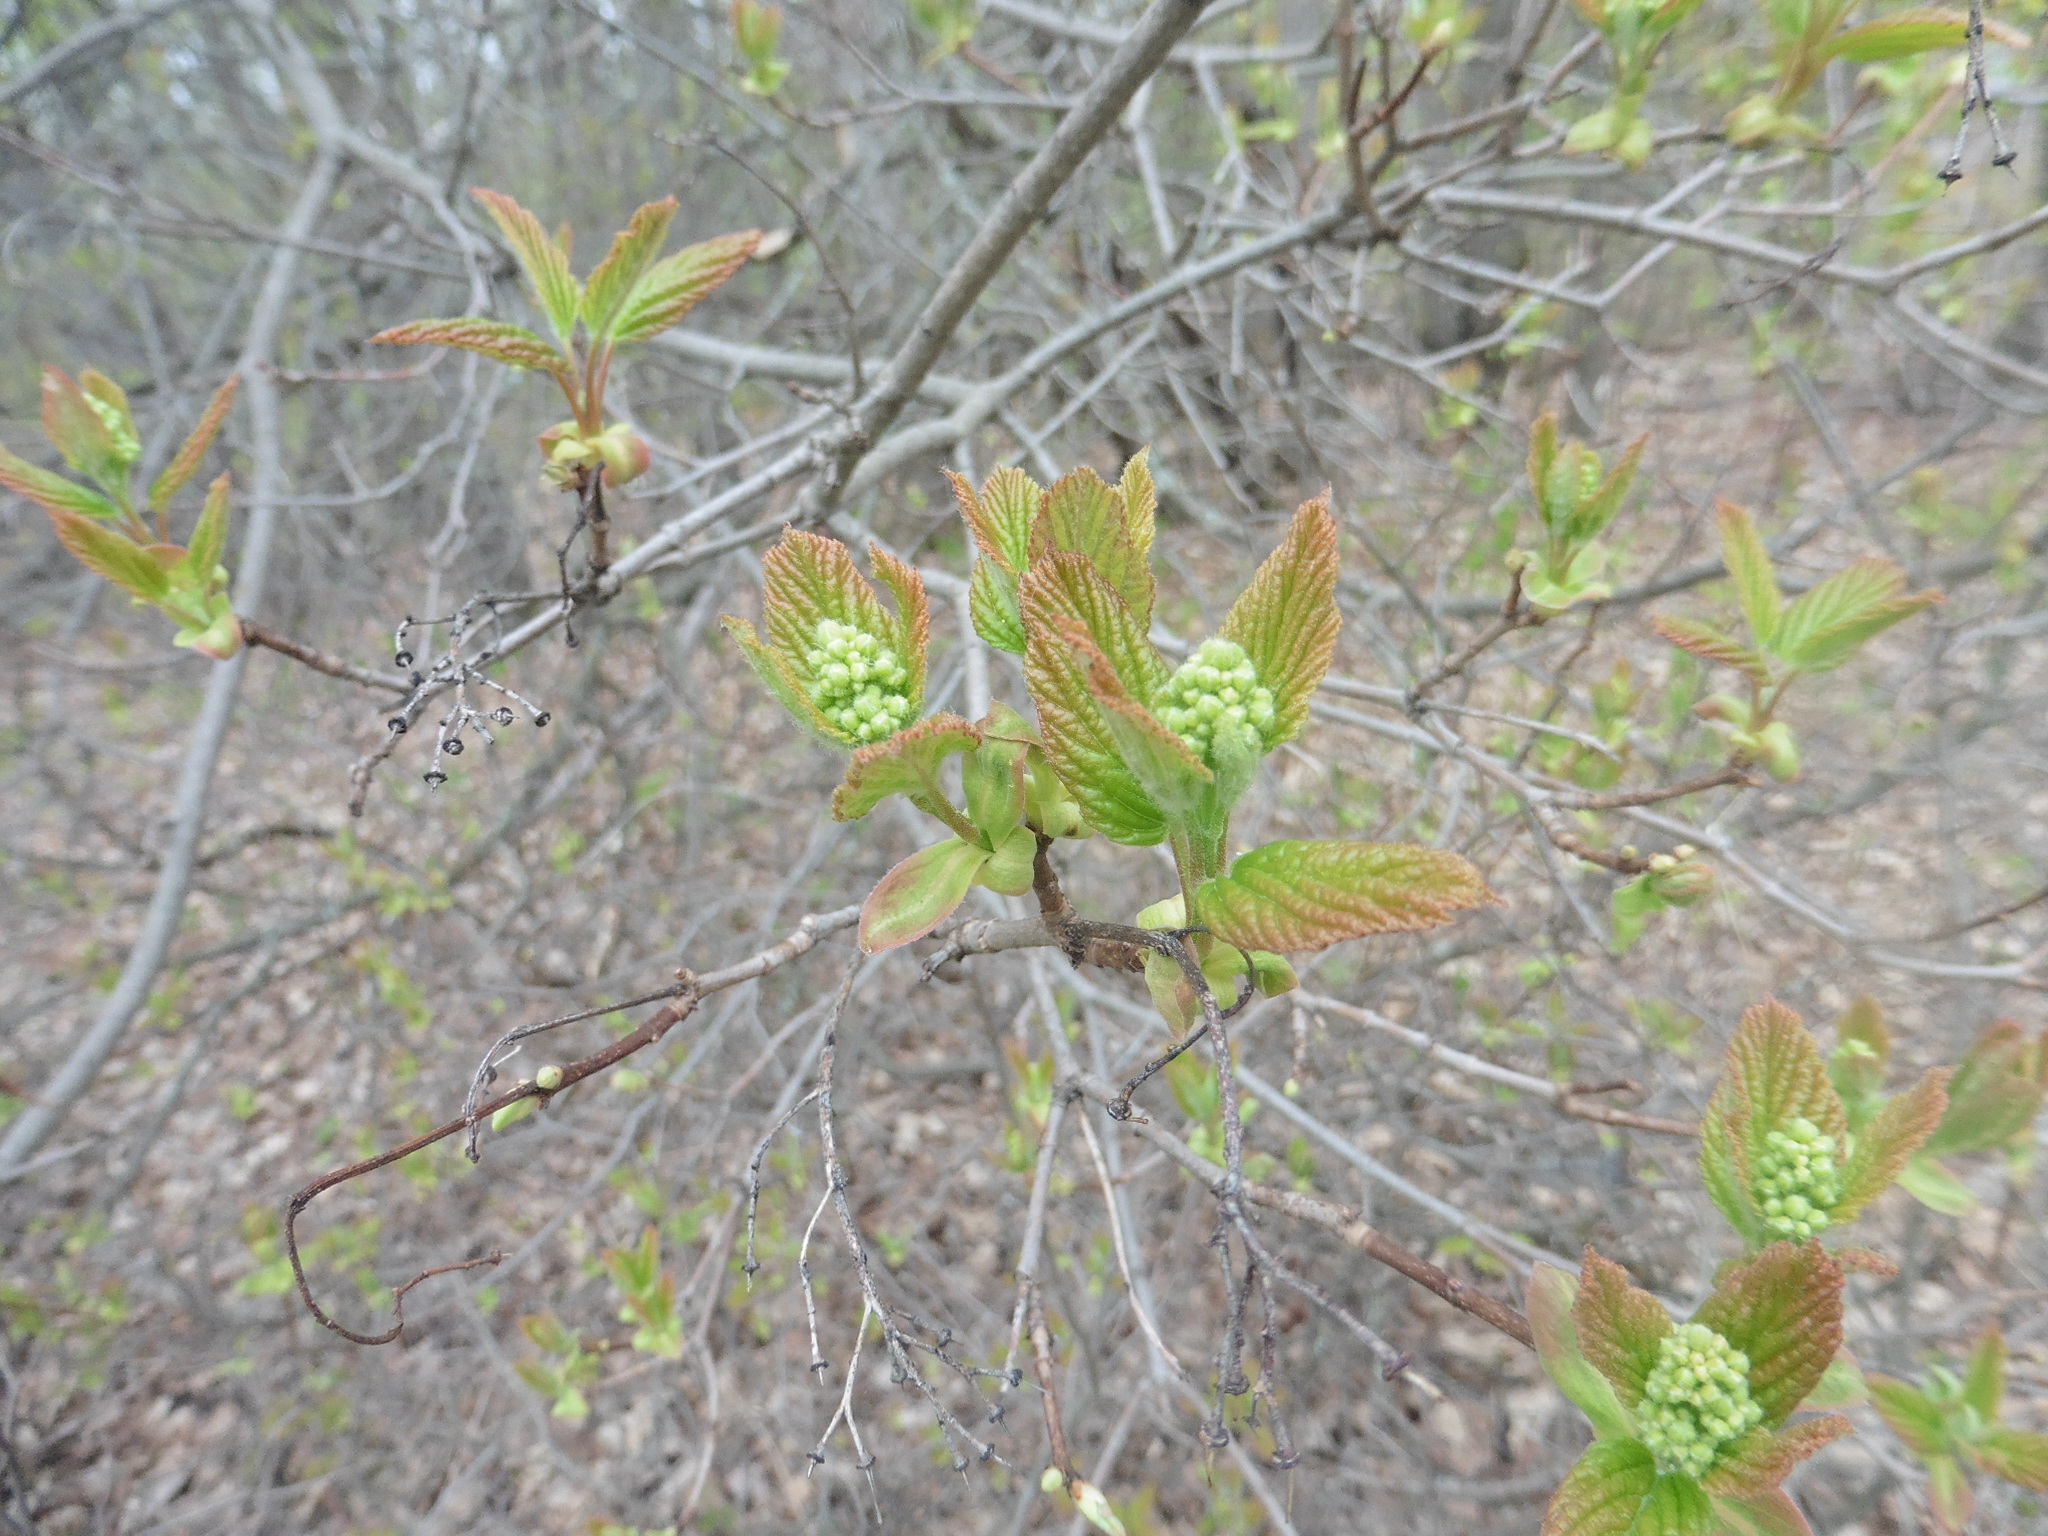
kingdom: Plantae
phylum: Tracheophyta
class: Magnoliopsida
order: Sapindales
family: Sapindaceae
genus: Acer
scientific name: Acer tataricum
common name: Tartar maple
